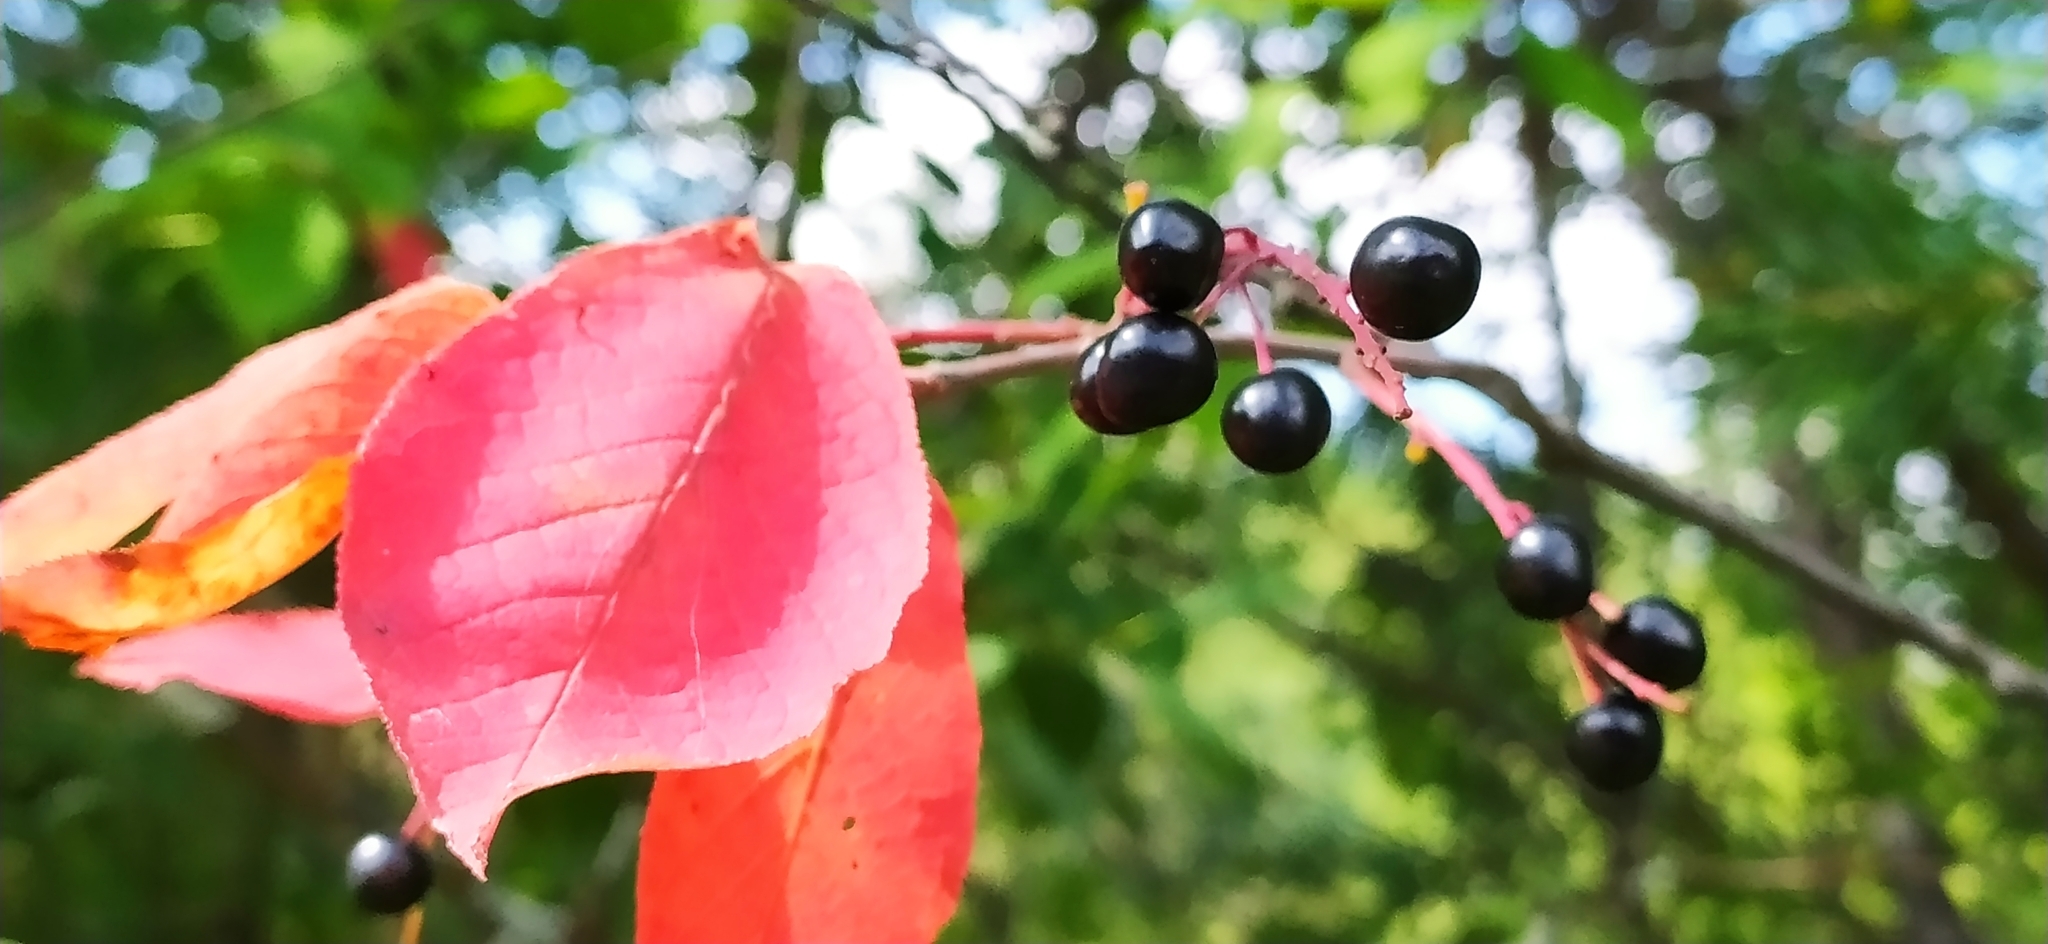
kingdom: Plantae
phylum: Tracheophyta
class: Magnoliopsida
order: Rosales
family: Rosaceae
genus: Prunus
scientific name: Prunus padus
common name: Bird cherry
